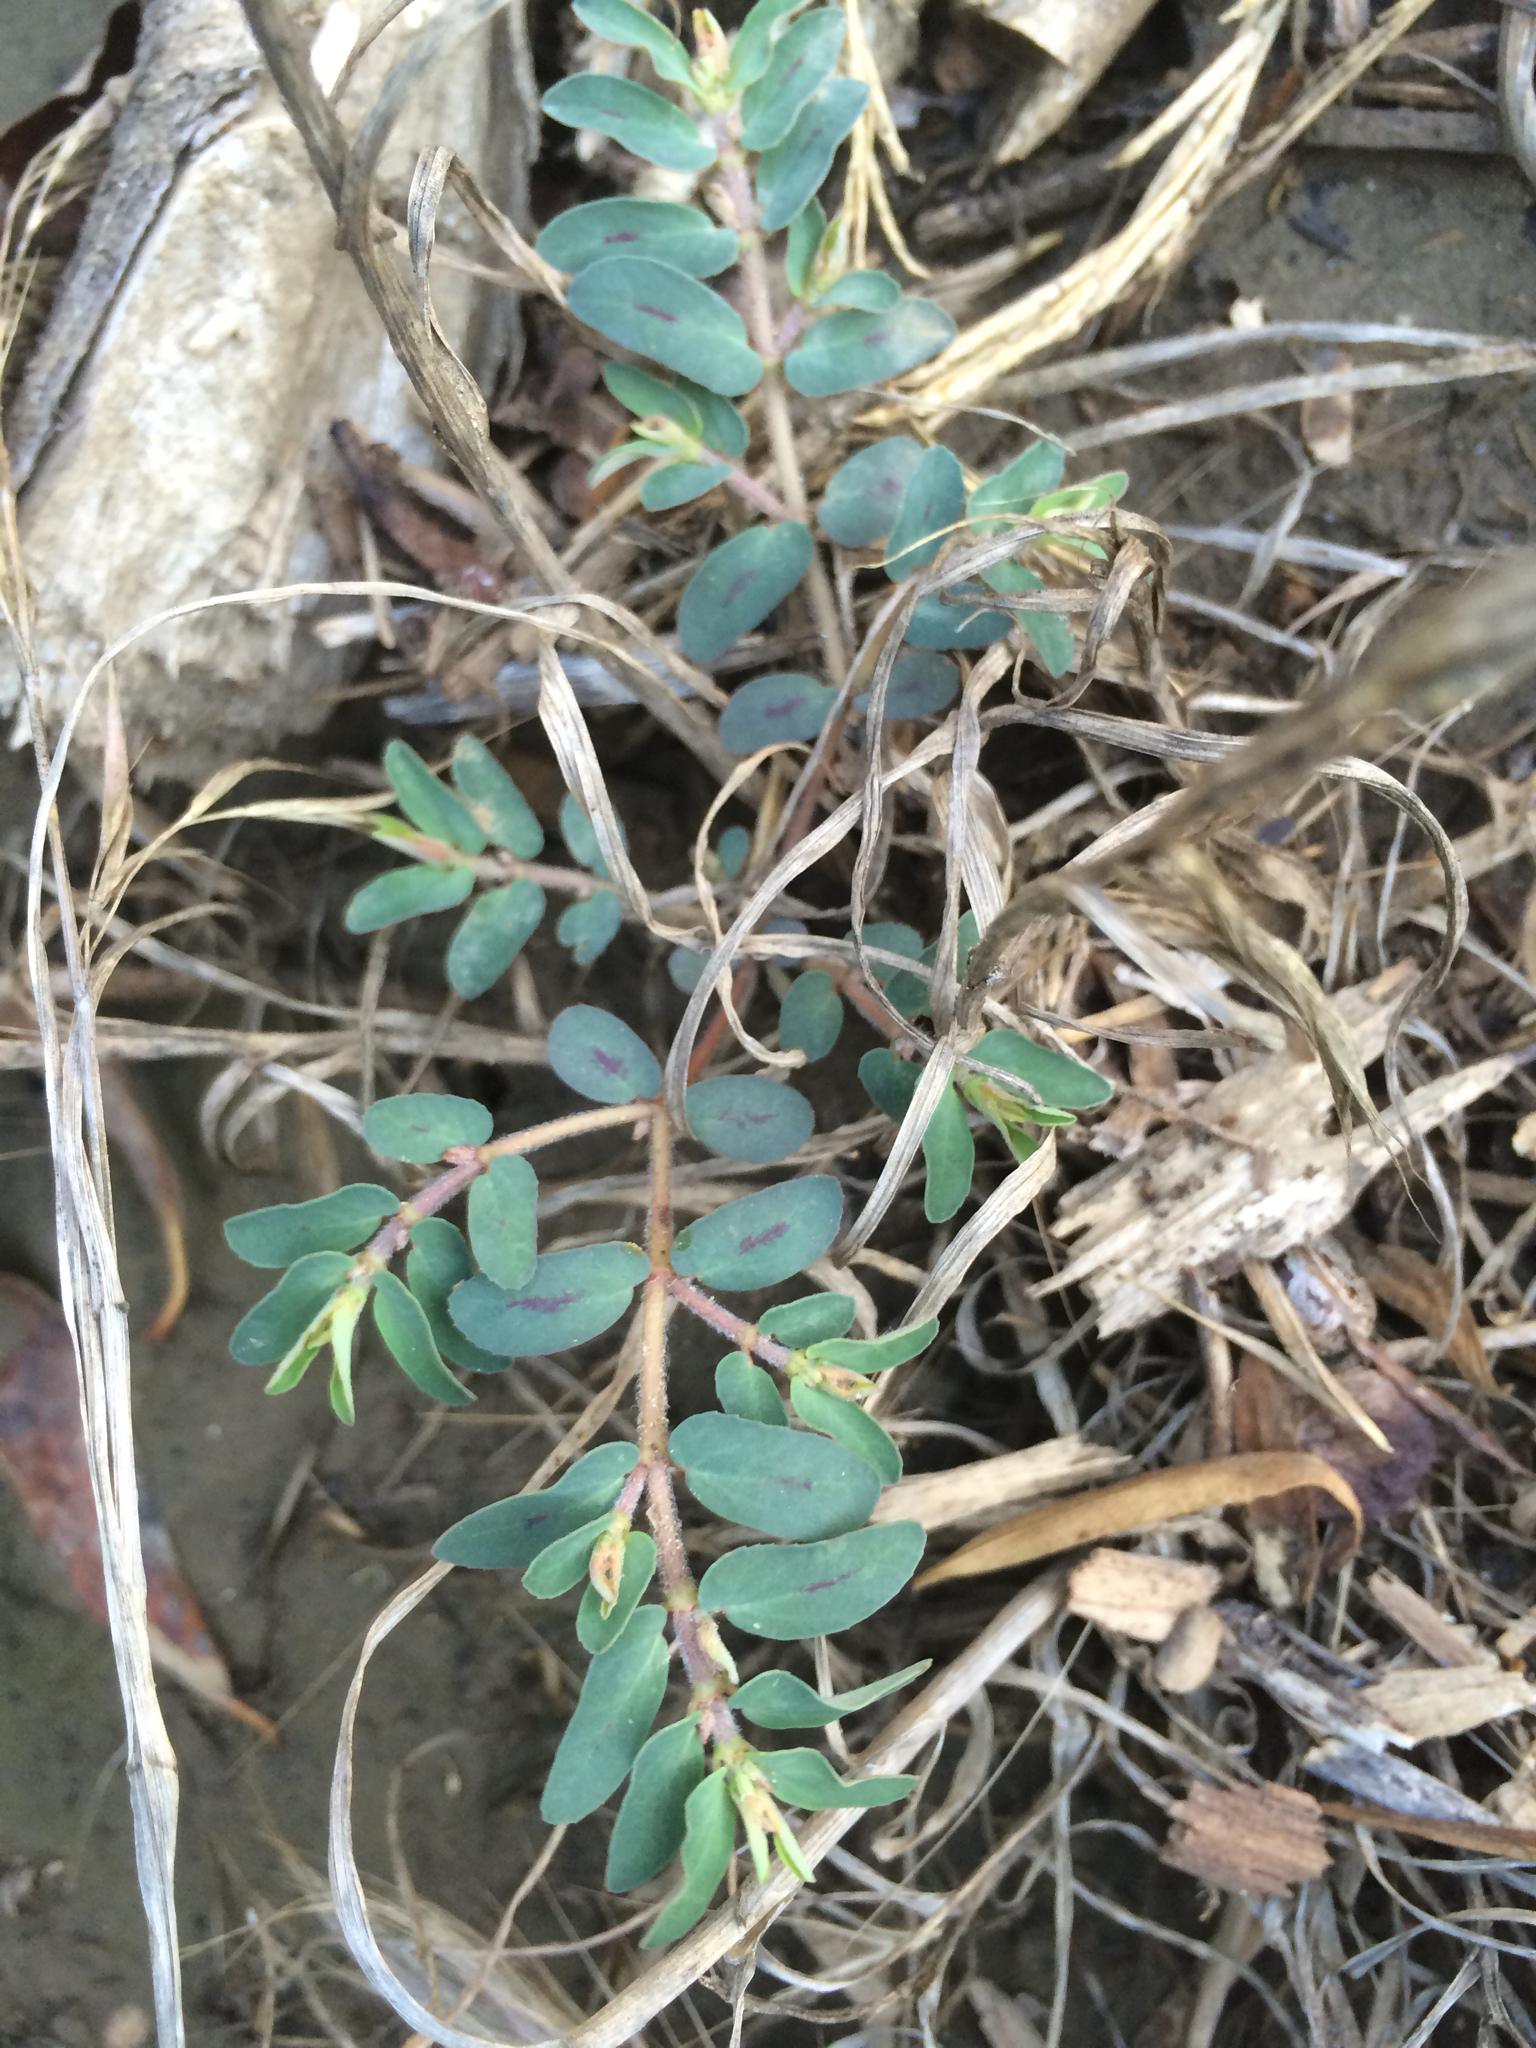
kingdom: Plantae
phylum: Tracheophyta
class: Magnoliopsida
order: Malpighiales
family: Euphorbiaceae
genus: Euphorbia
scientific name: Euphorbia maculata
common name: Spotted spurge
